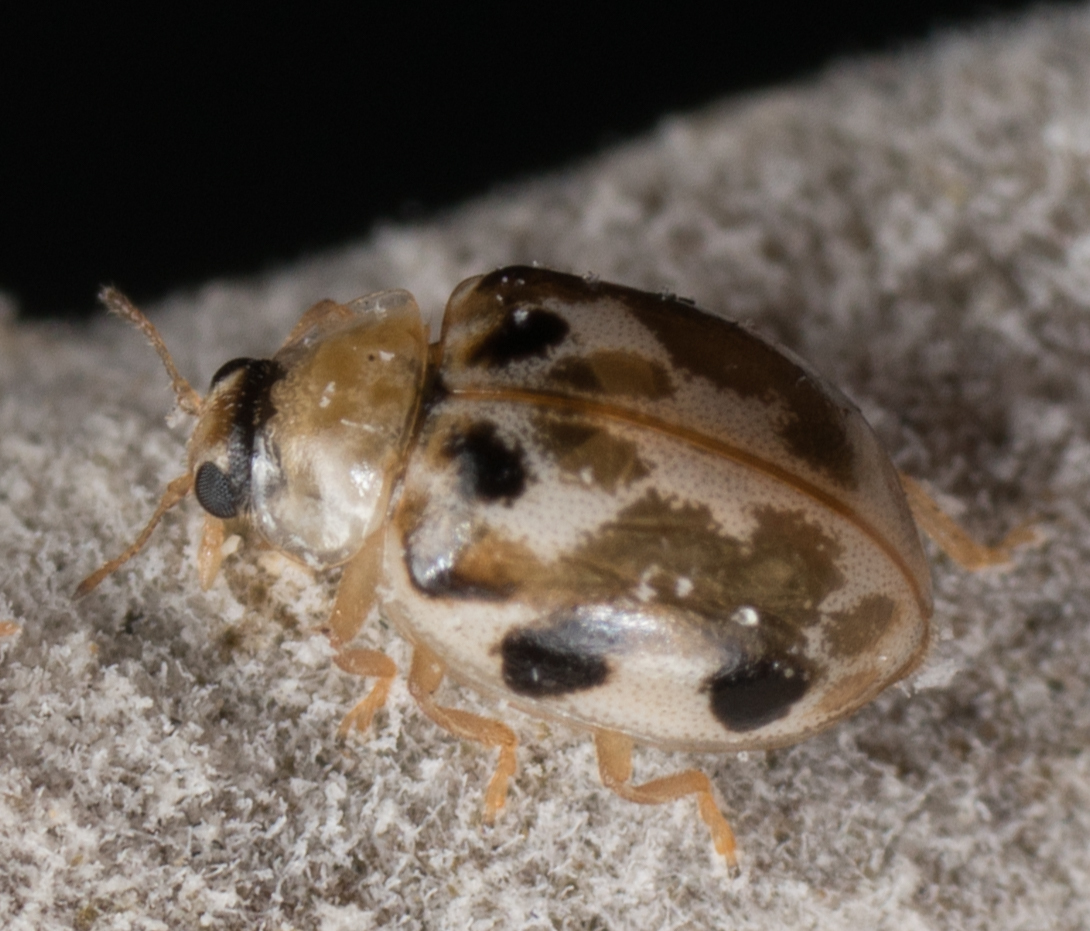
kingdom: Animalia
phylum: Arthropoda
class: Insecta
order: Coleoptera
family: Coccinellidae
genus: Psyllobora
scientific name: Psyllobora vigintimaculata
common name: Ladybird beetle
